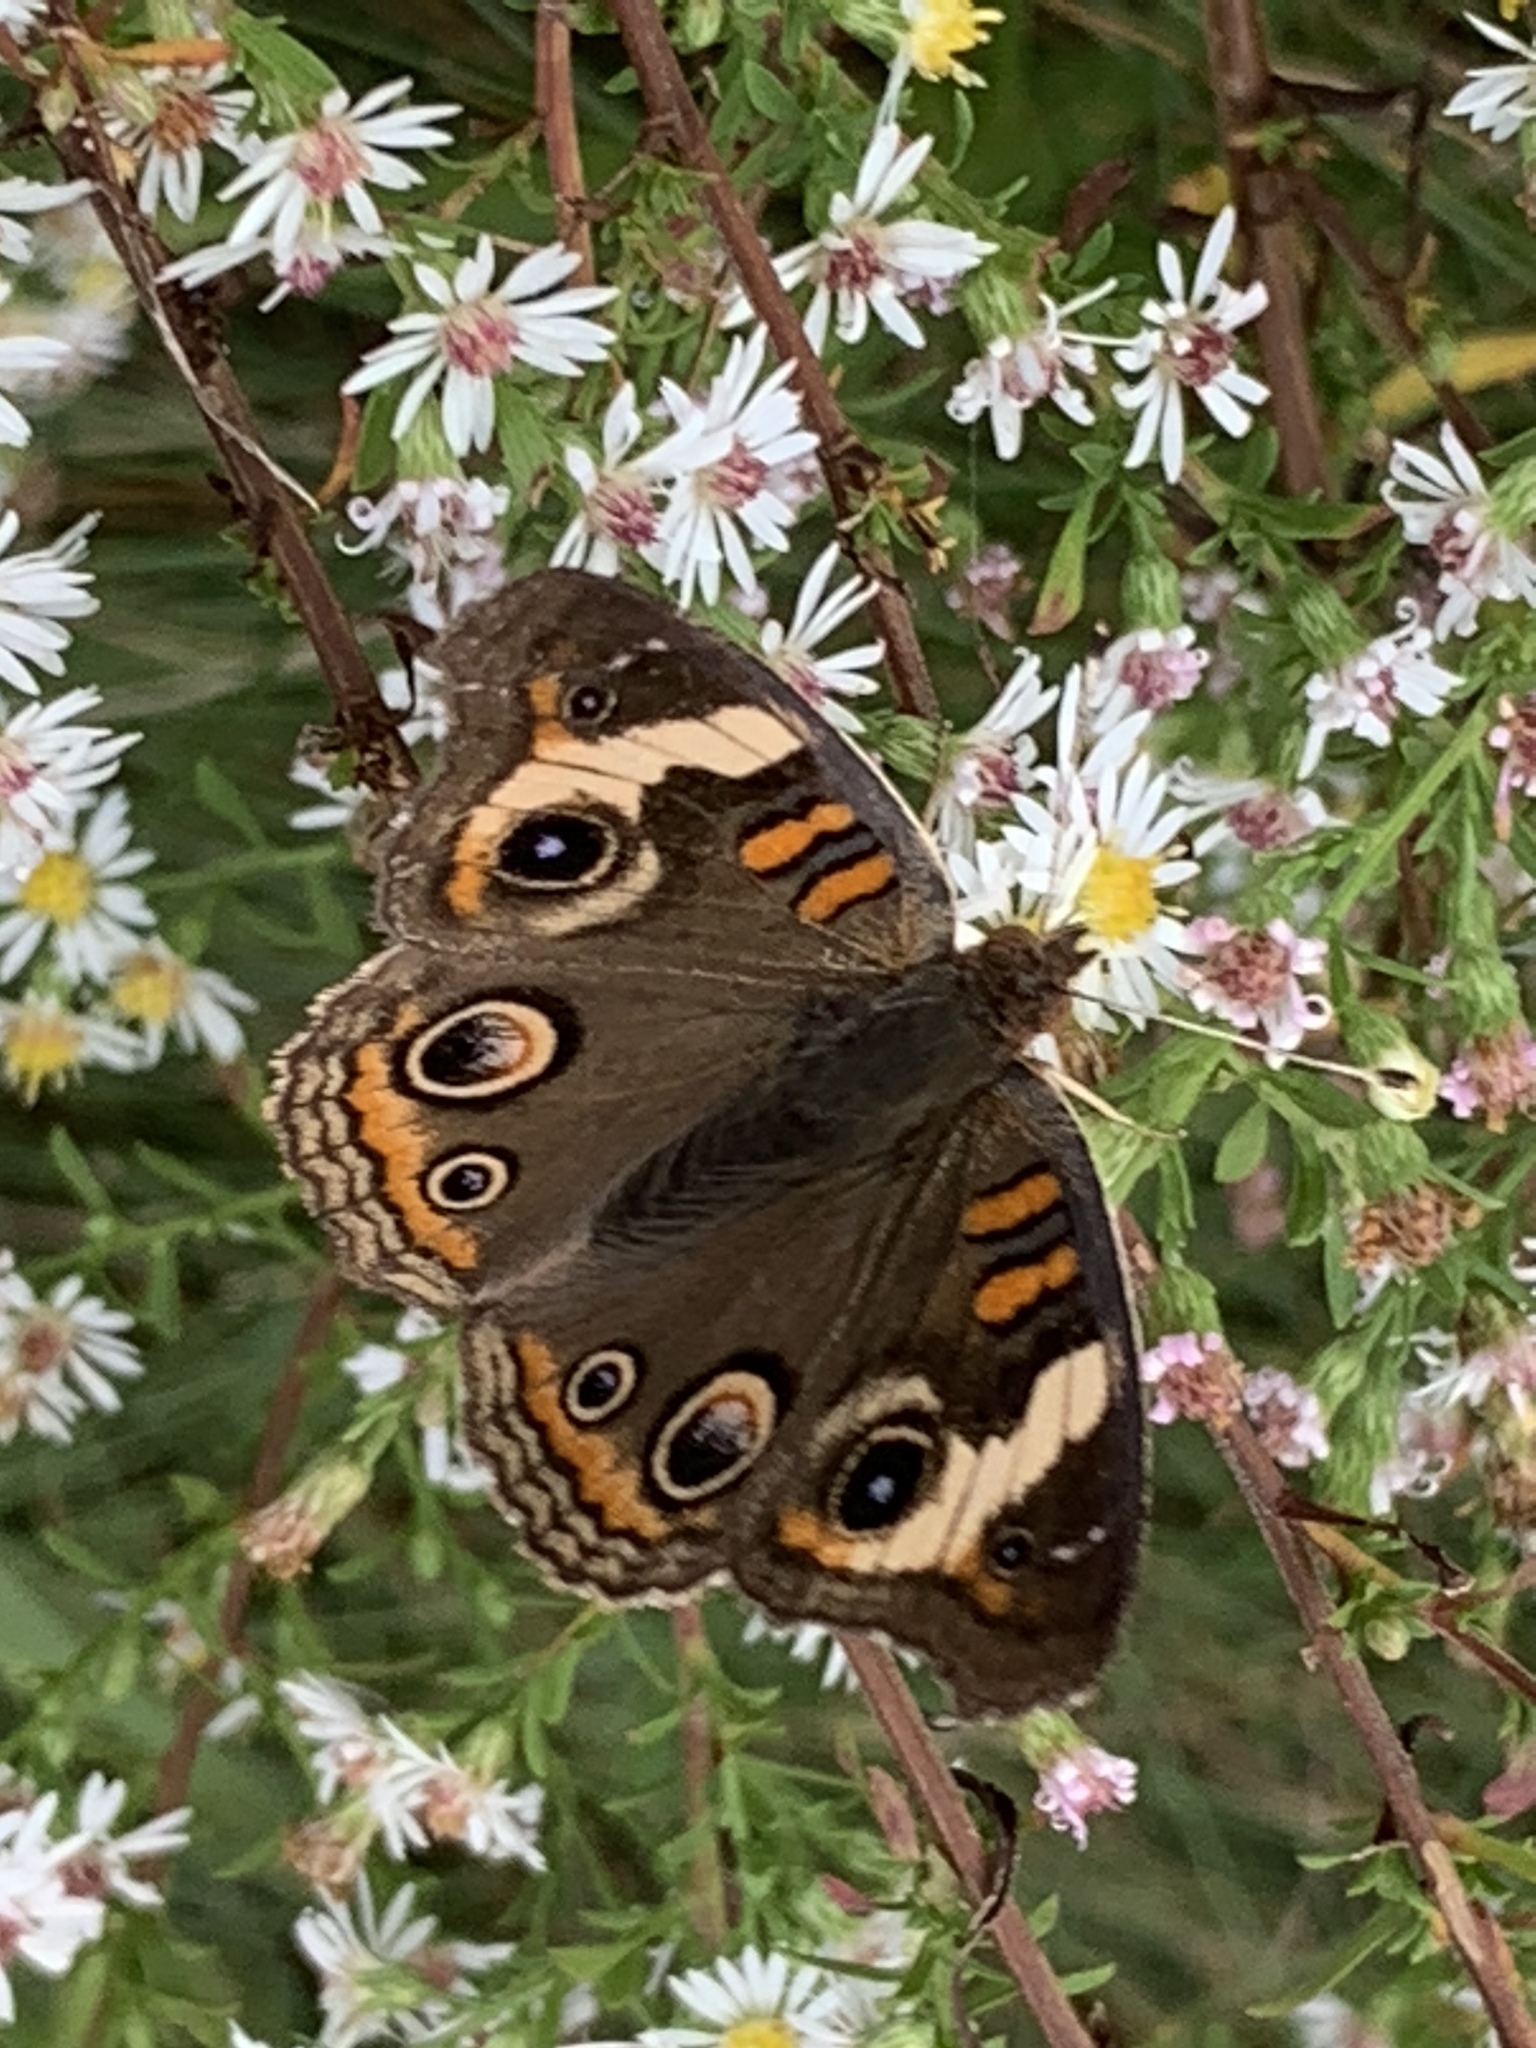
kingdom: Animalia
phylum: Arthropoda
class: Insecta
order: Lepidoptera
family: Nymphalidae
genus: Junonia
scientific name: Junonia coenia
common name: Common buckeye
